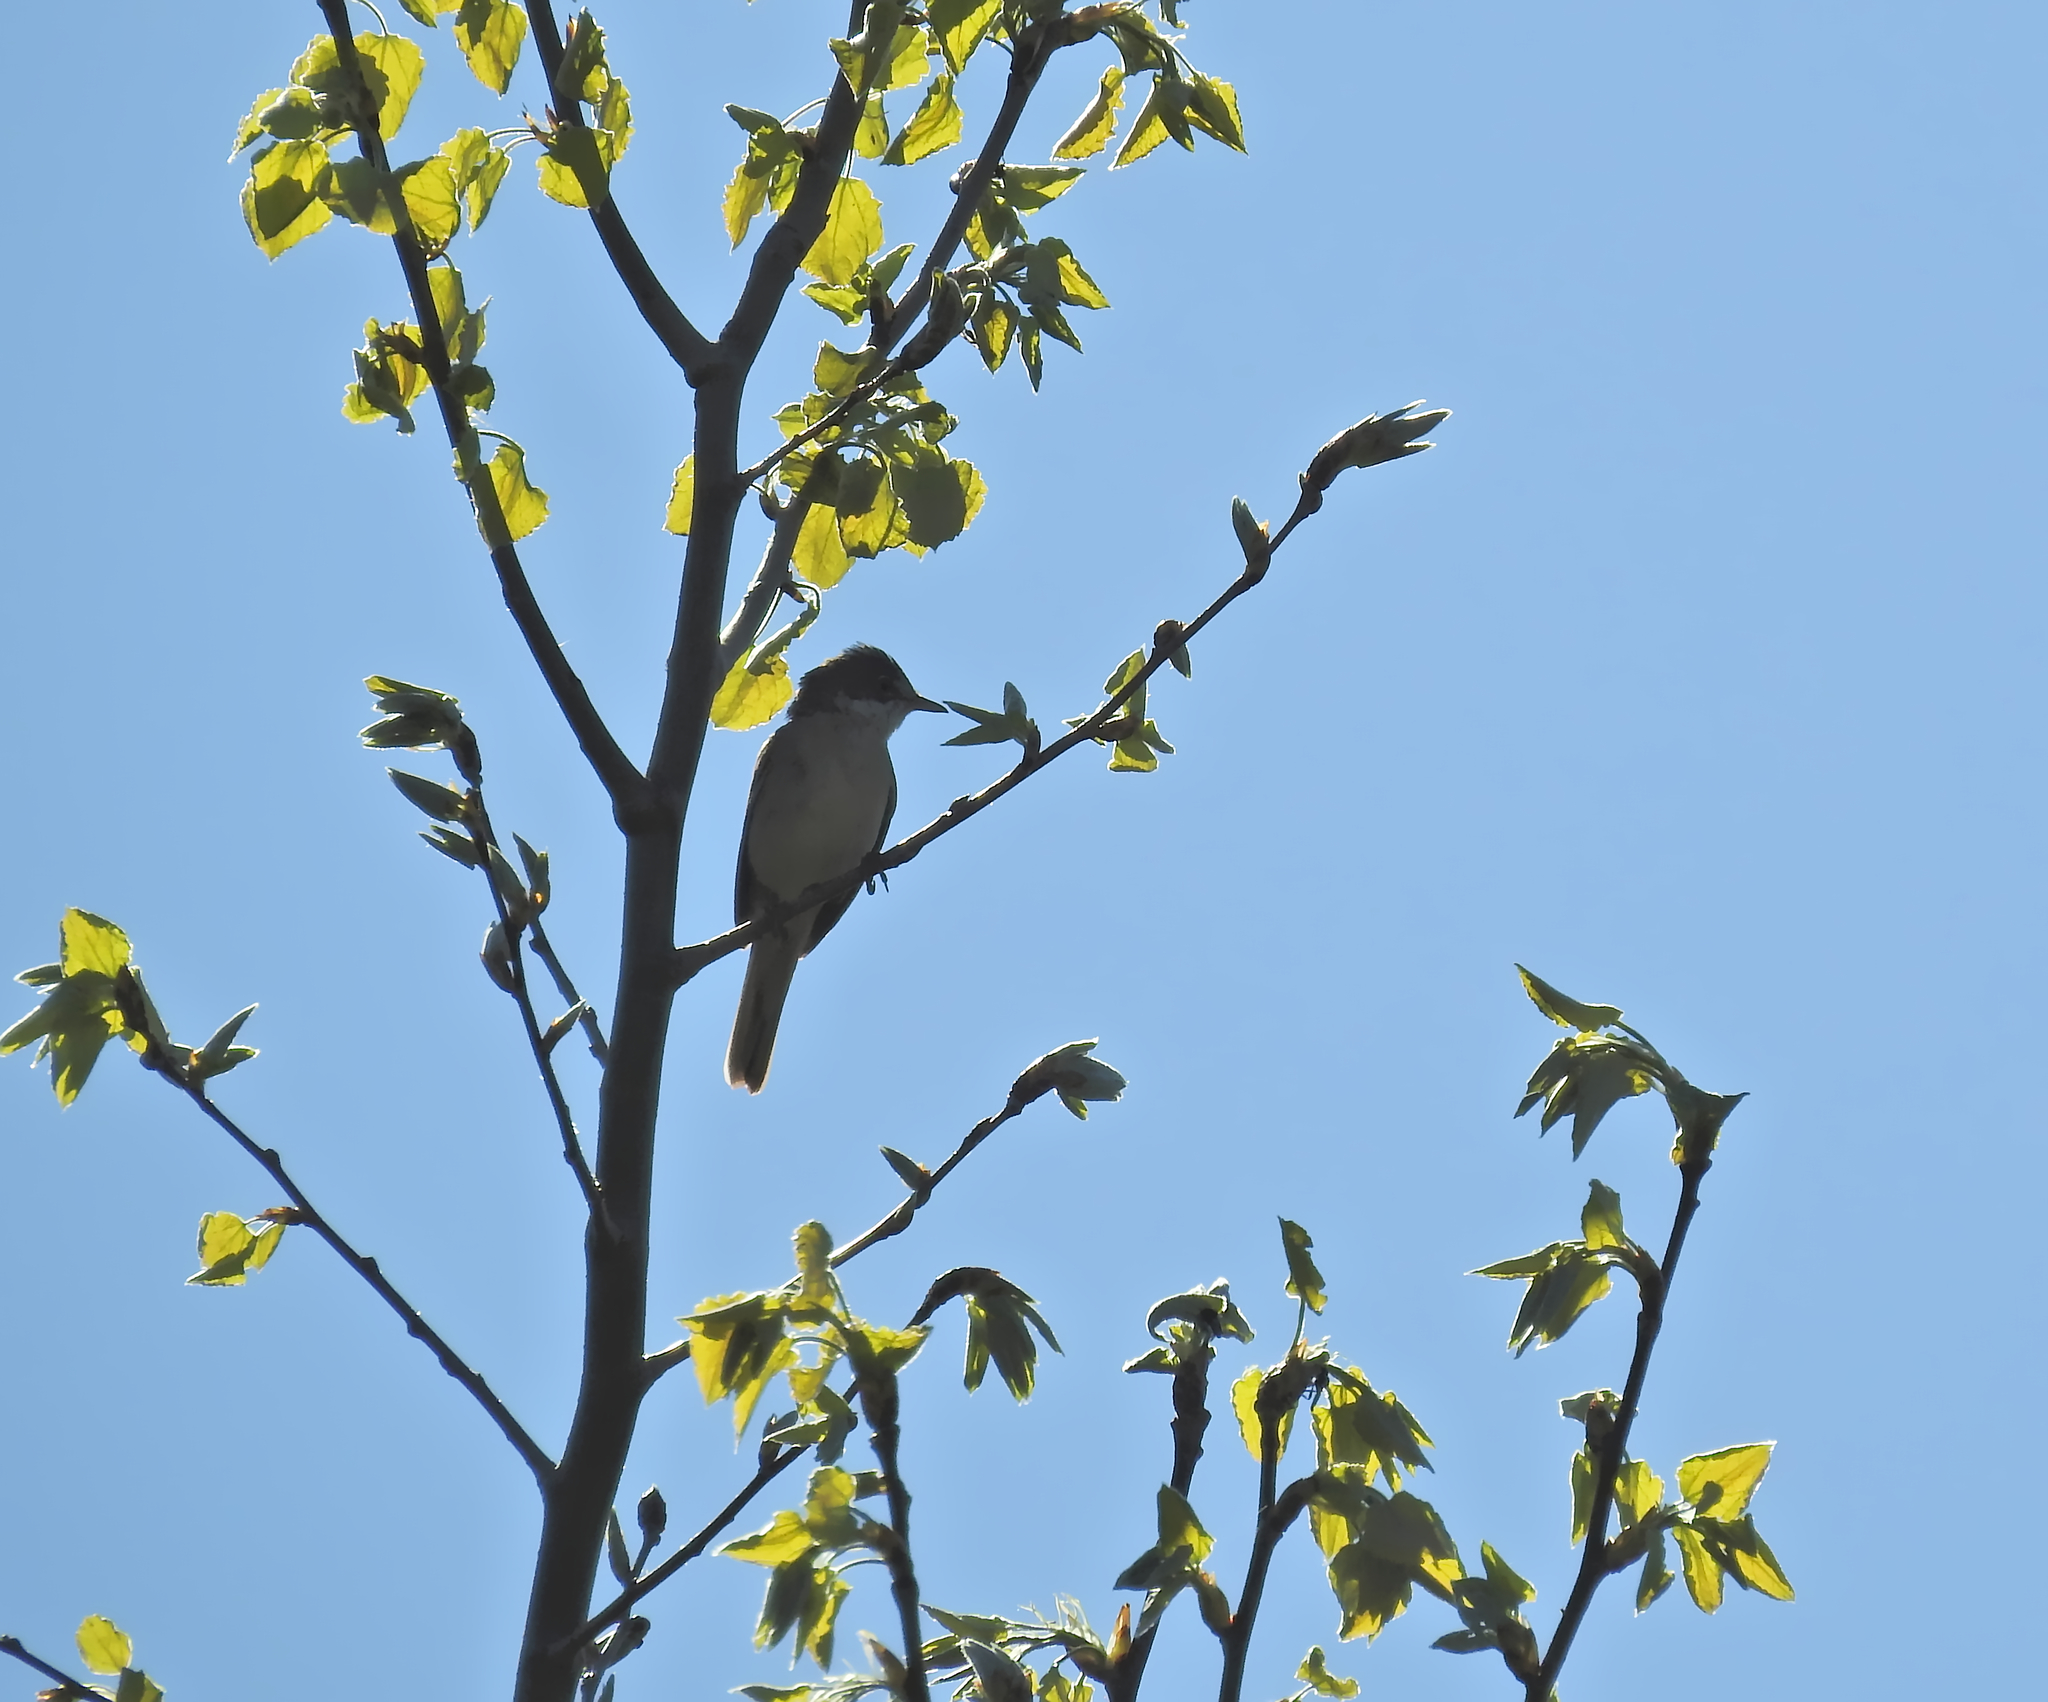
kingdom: Animalia
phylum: Chordata
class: Aves
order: Passeriformes
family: Sylviidae
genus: Sylvia
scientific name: Sylvia communis
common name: Common whitethroat
